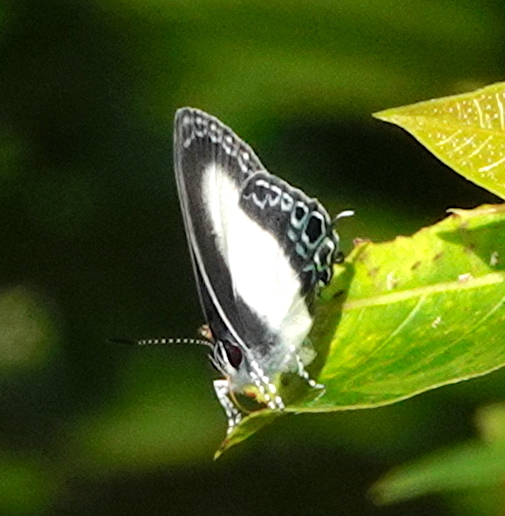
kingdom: Animalia
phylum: Arthropoda
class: Insecta
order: Lepidoptera
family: Lycaenidae
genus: Hypolycaena
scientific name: Hypolycaena danis
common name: Orchid flash
